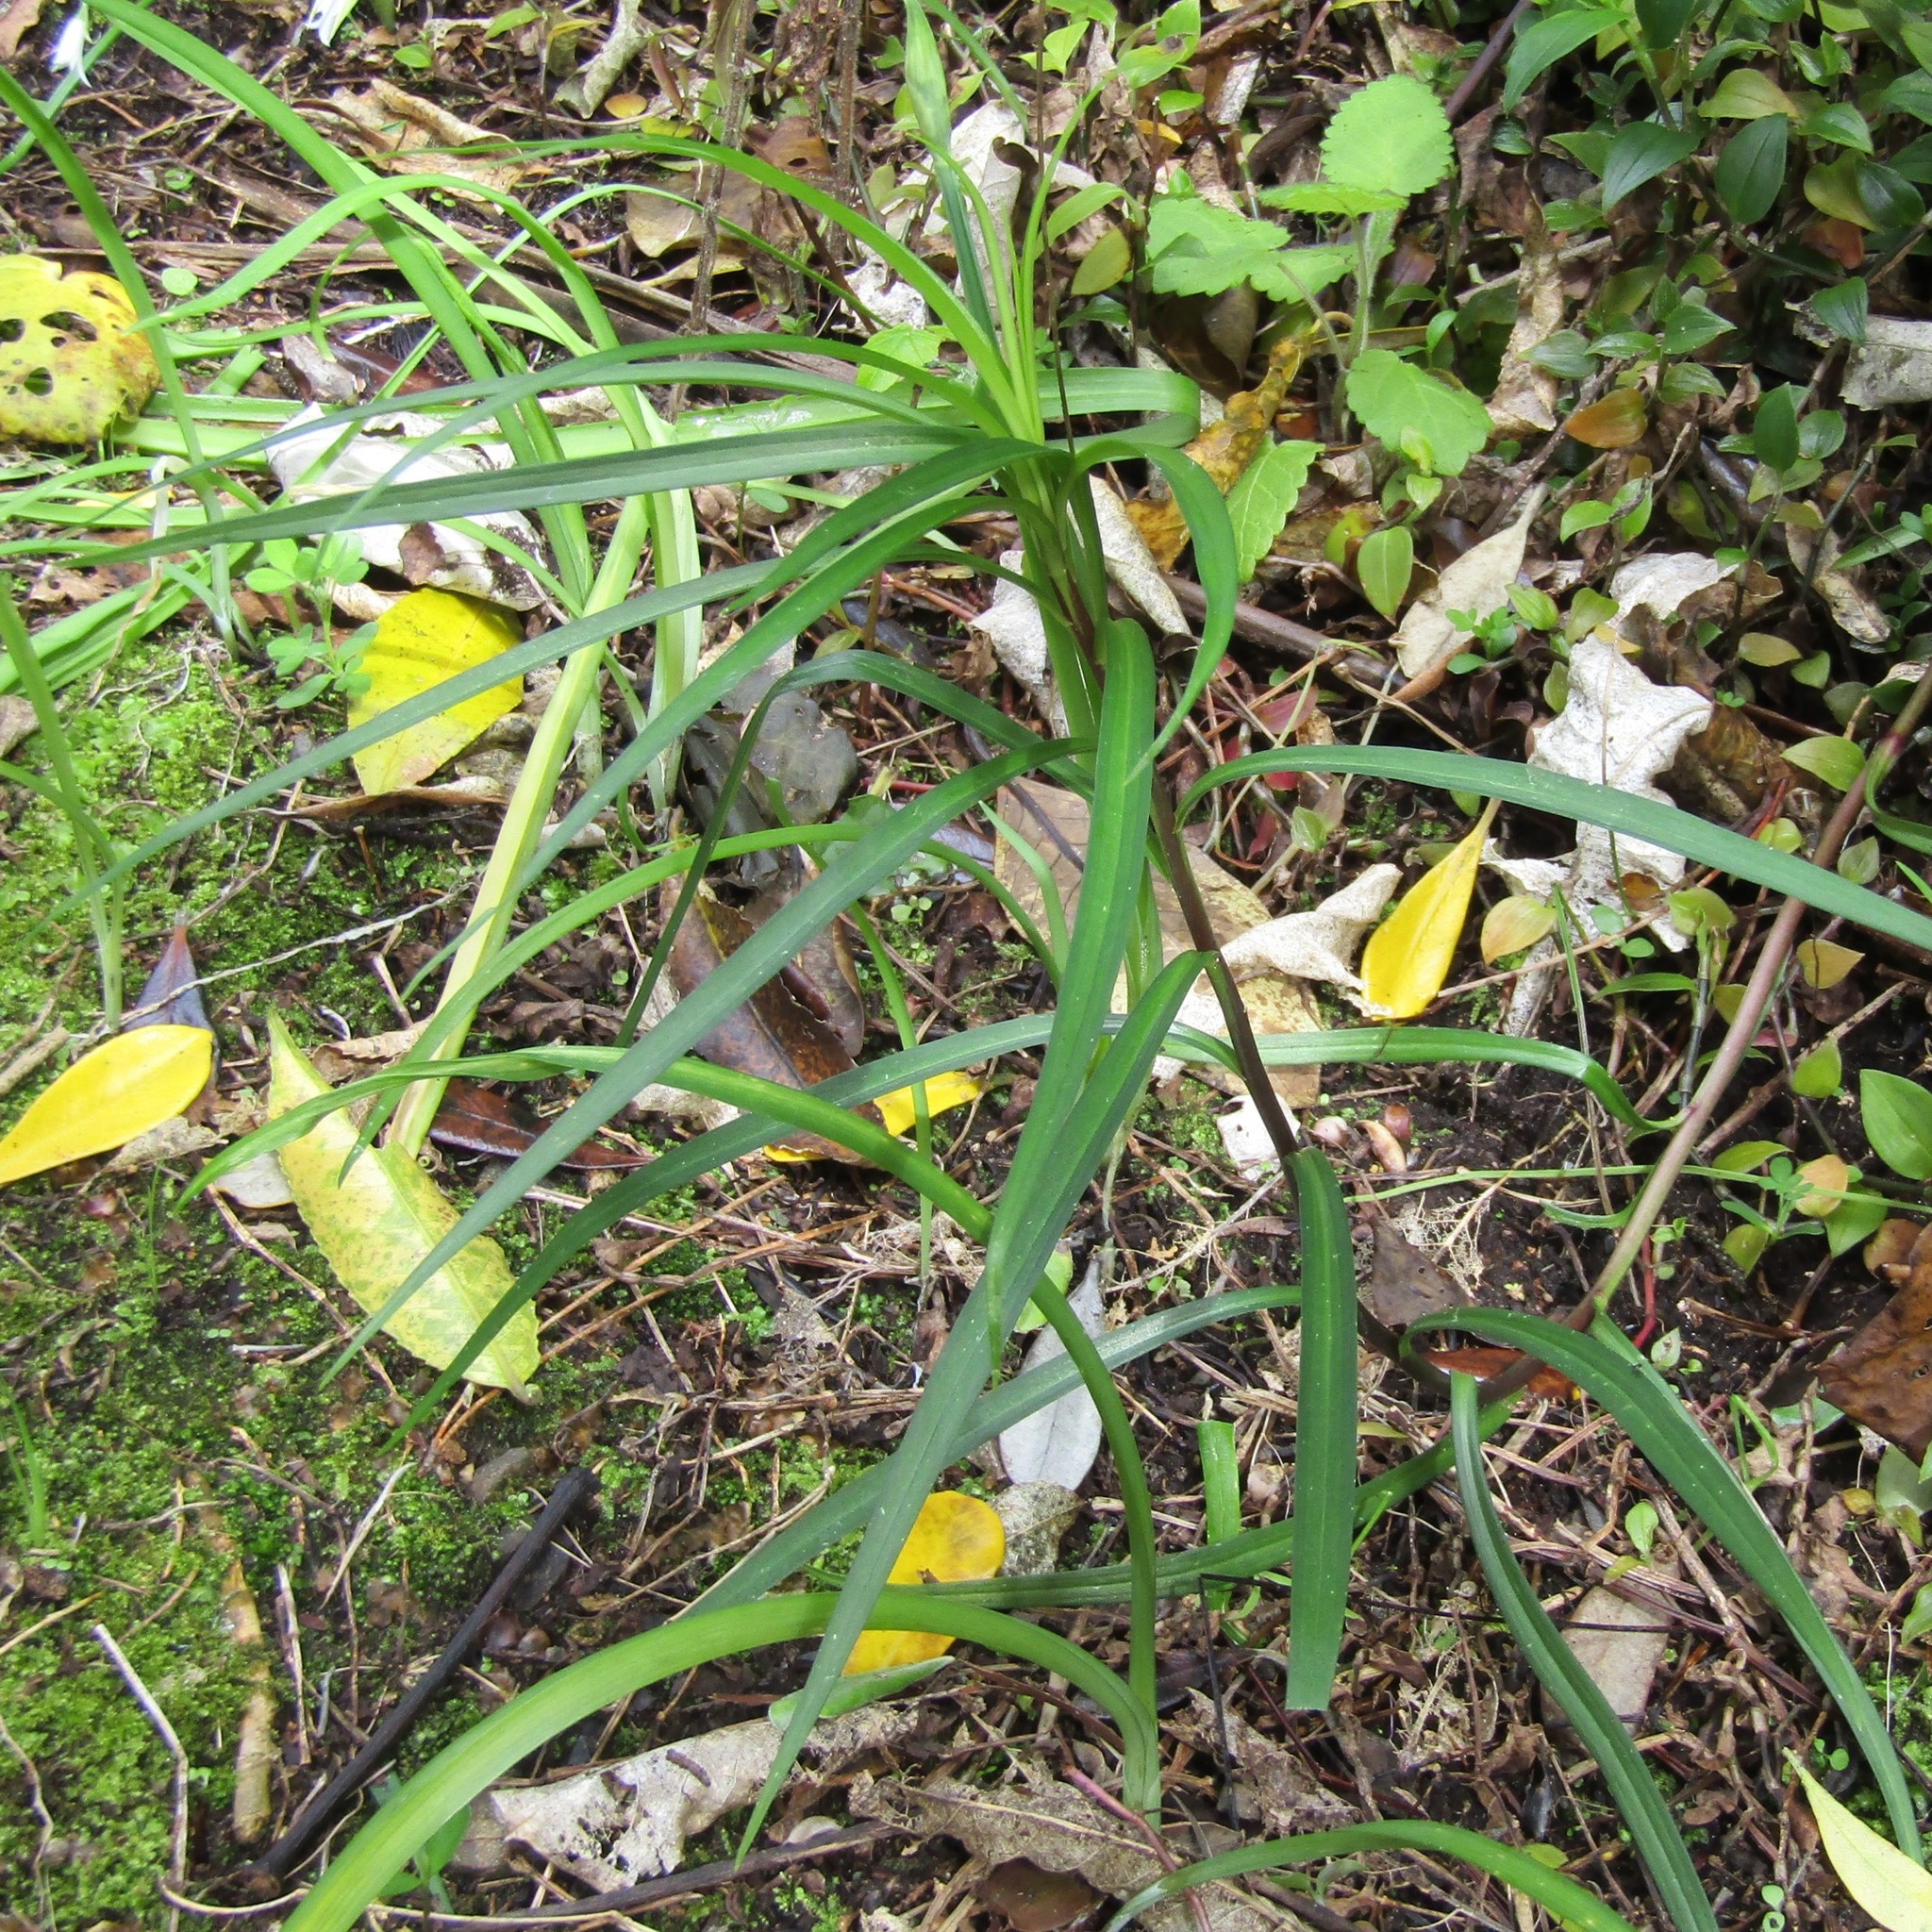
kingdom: Plantae
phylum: Tracheophyta
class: Liliopsida
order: Liliales
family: Liliaceae
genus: Lilium
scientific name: Lilium formosanum
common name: Formosa lily
